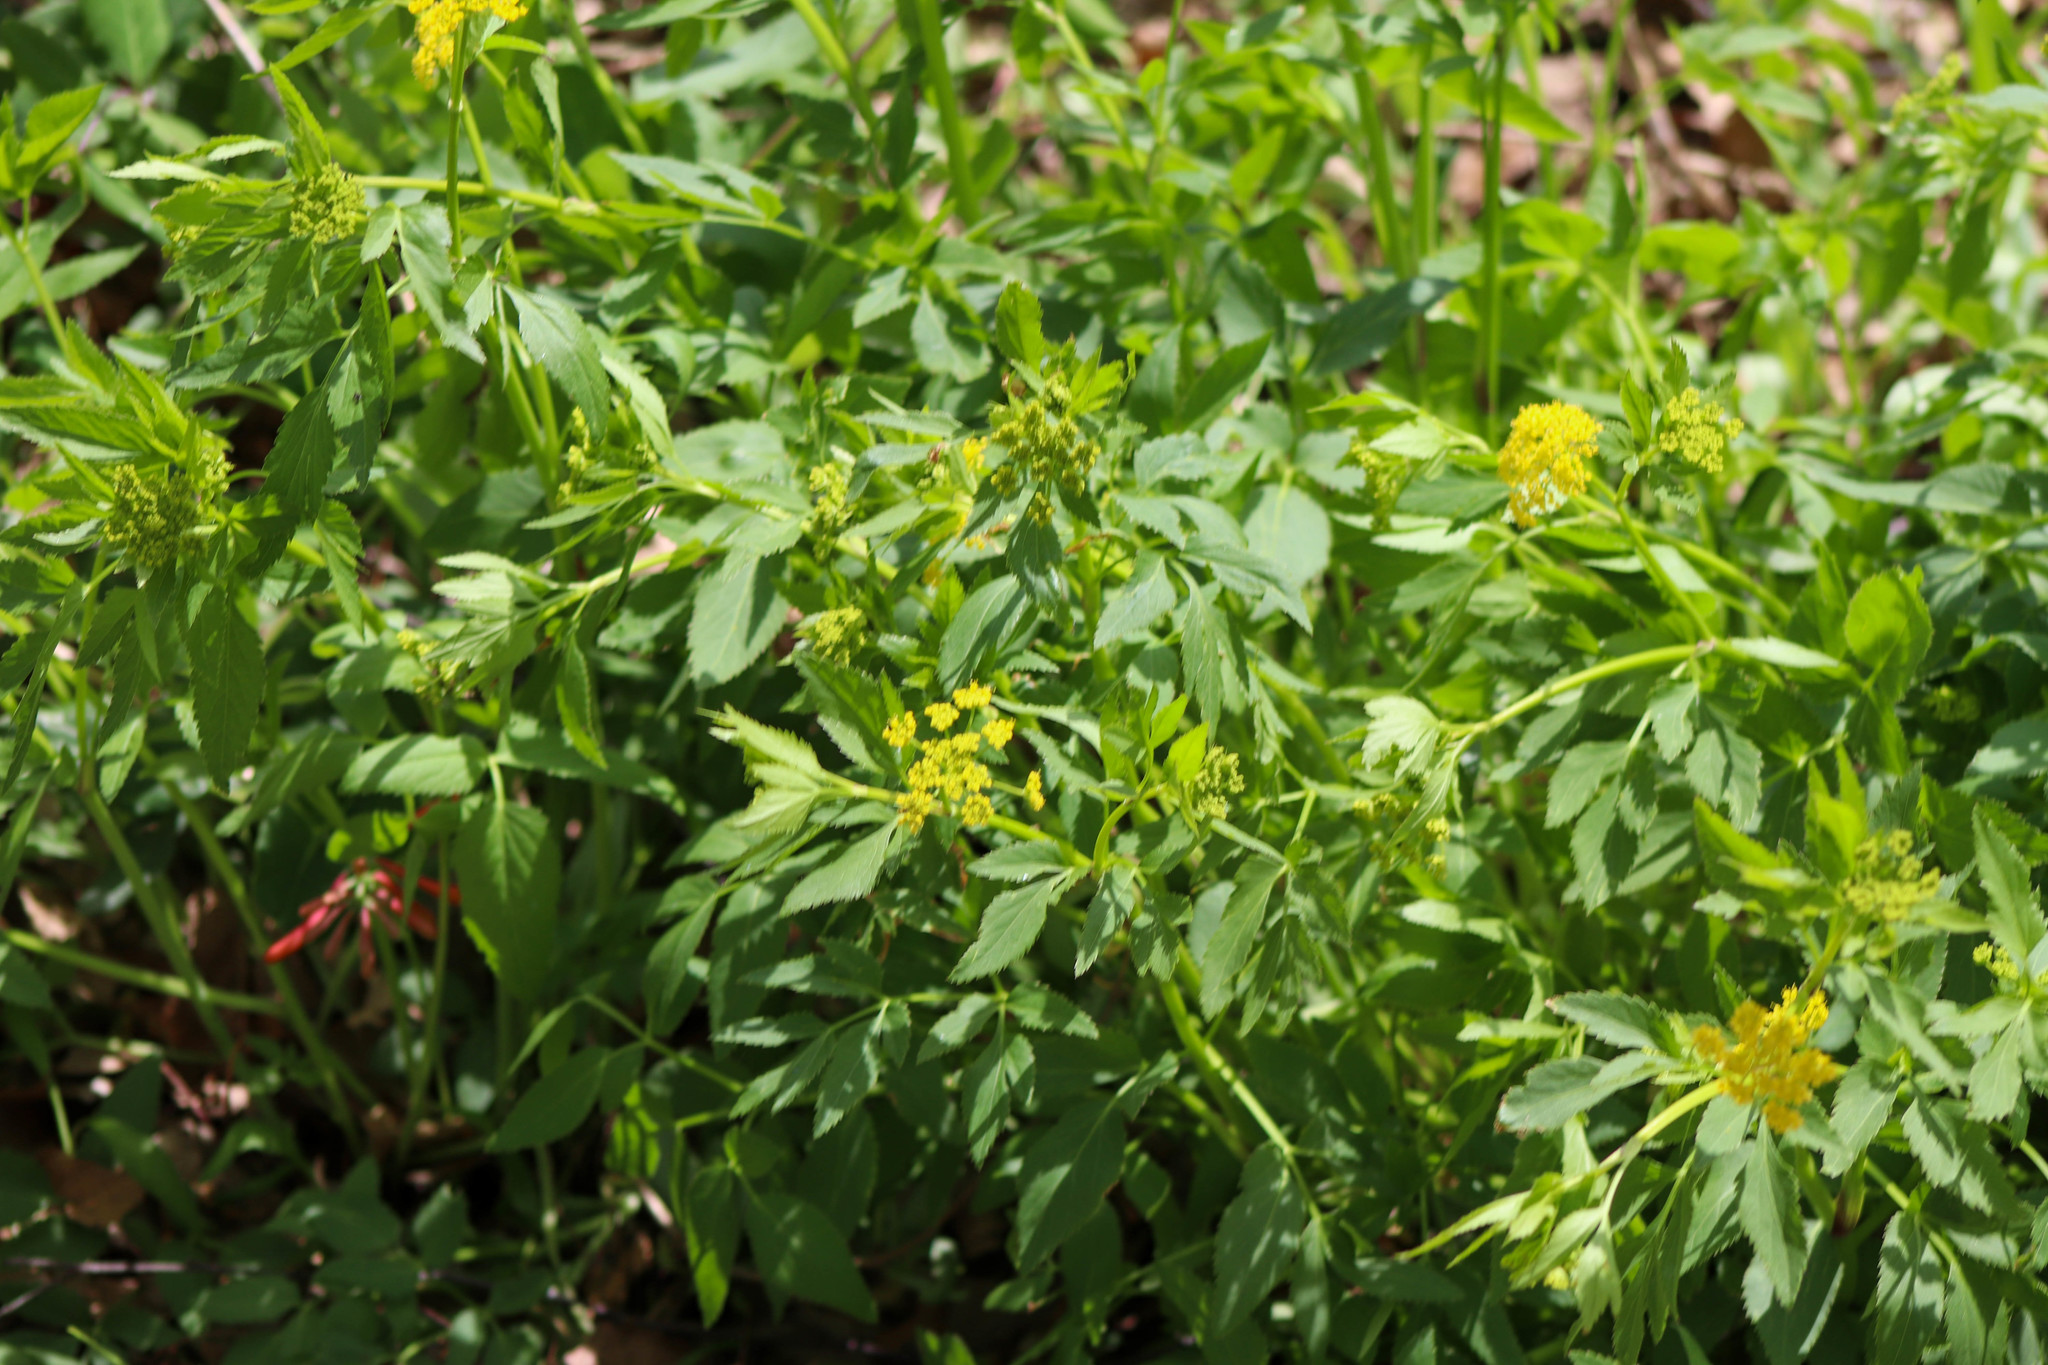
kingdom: Plantae
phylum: Tracheophyta
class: Magnoliopsida
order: Apiales
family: Apiaceae
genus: Zizia
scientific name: Zizia aurea
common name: Golden alexanders
